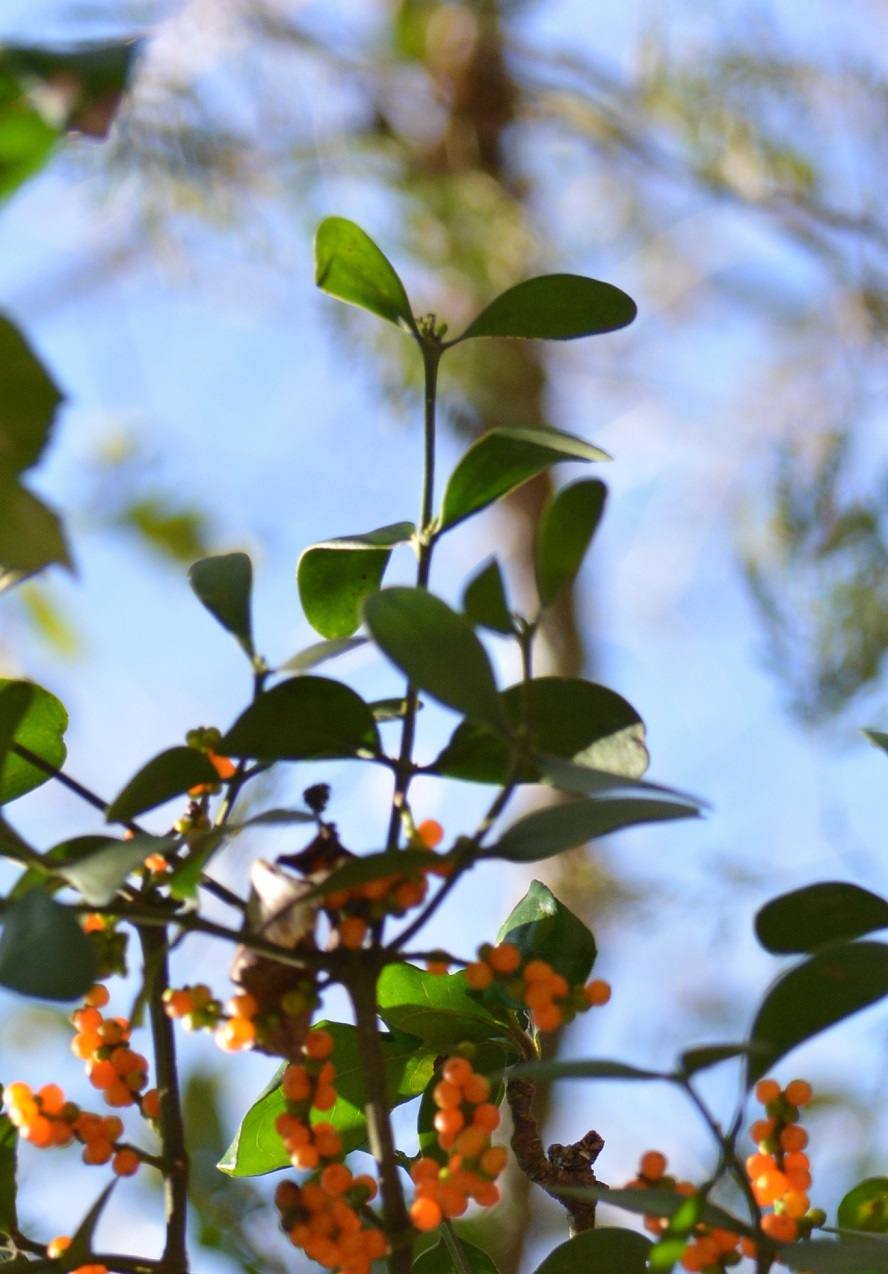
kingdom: Plantae
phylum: Tracheophyta
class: Magnoliopsida
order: Santalales
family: Viscaceae
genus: Phoradendron
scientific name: Phoradendron quadrangulare
